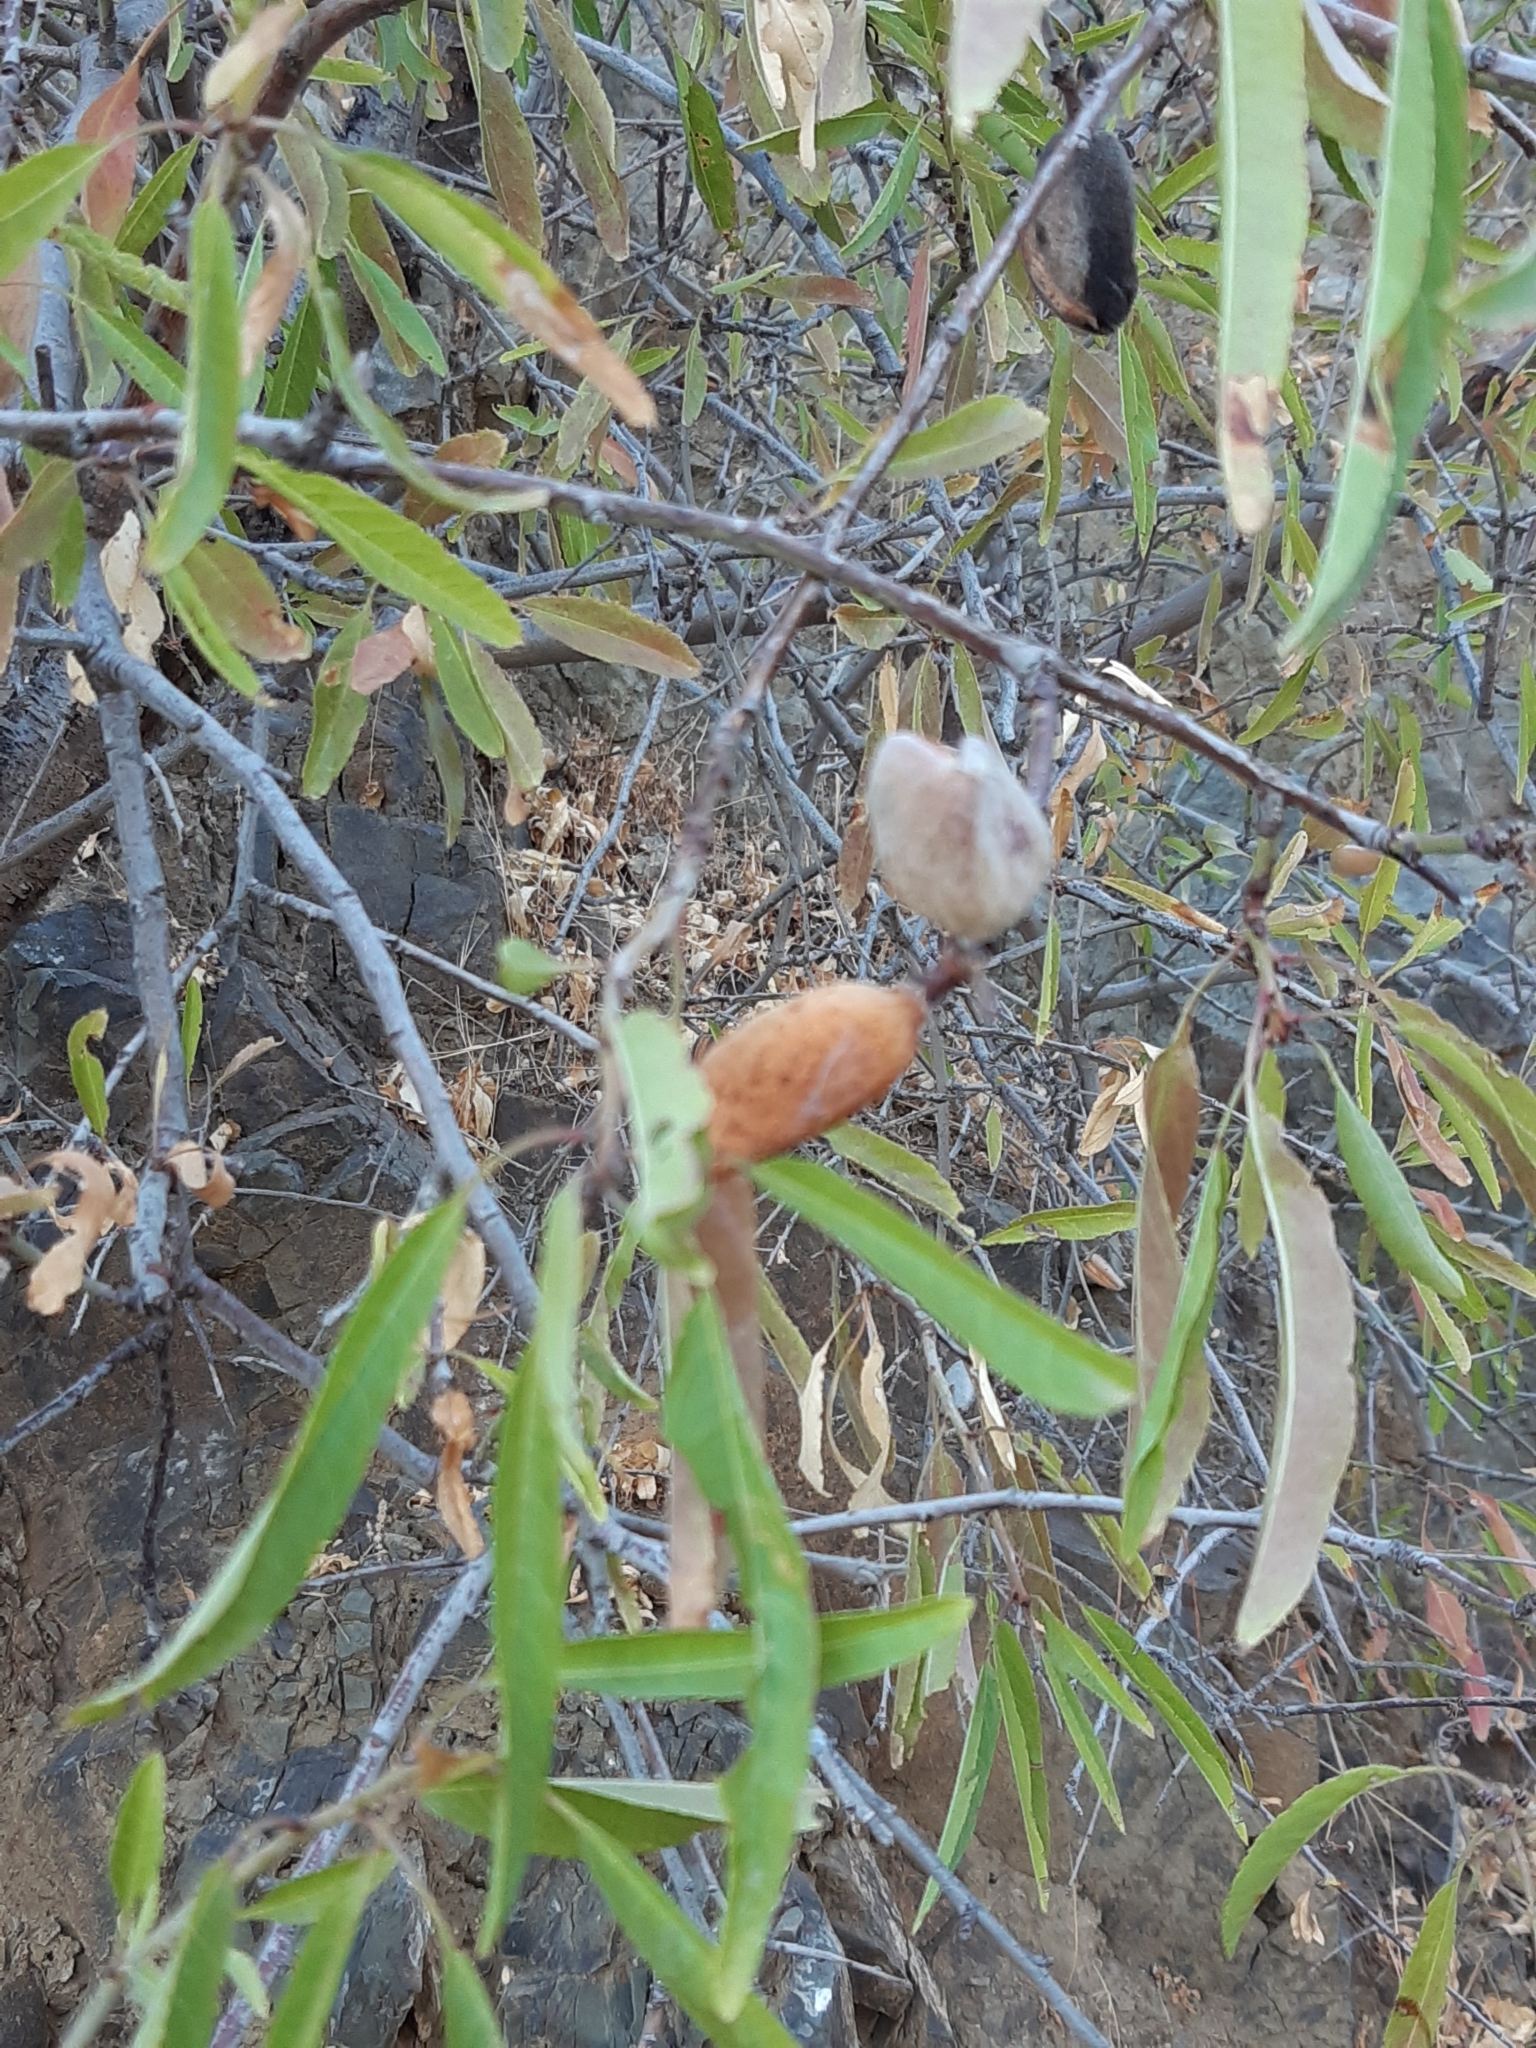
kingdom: Plantae
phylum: Tracheophyta
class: Magnoliopsida
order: Rosales
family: Rosaceae
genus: Prunus
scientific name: Prunus amygdalus
